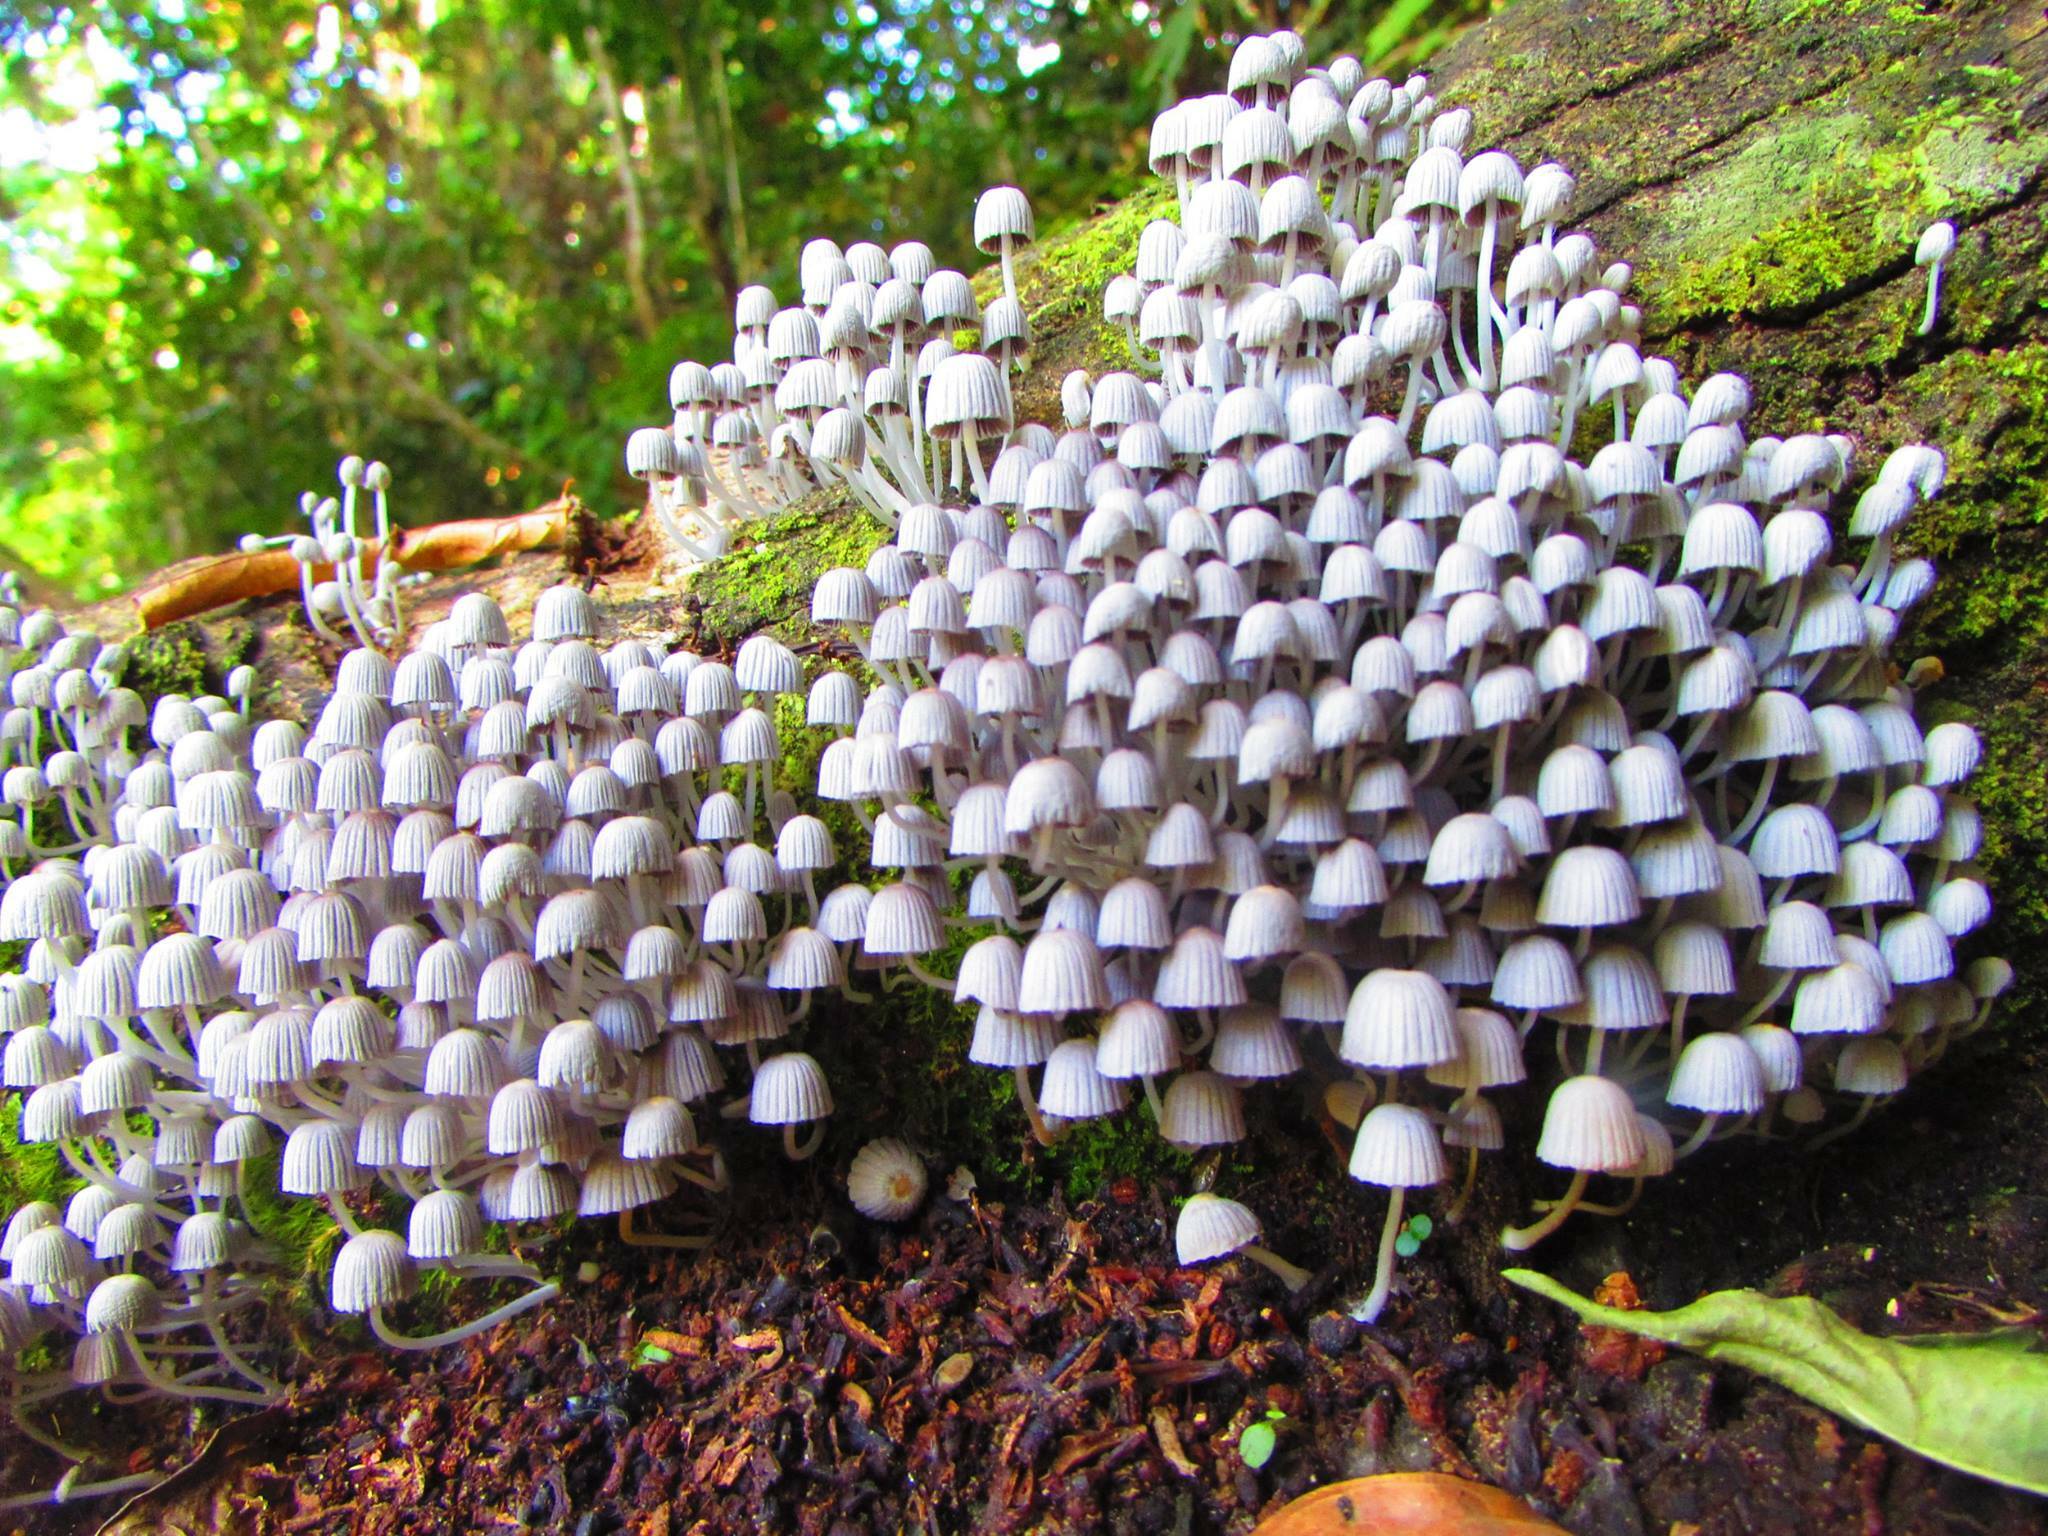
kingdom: Fungi
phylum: Basidiomycota
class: Agaricomycetes
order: Agaricales
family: Psathyrellaceae
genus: Coprinellus
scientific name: Coprinellus disseminatus
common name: Fairies' bonnets
